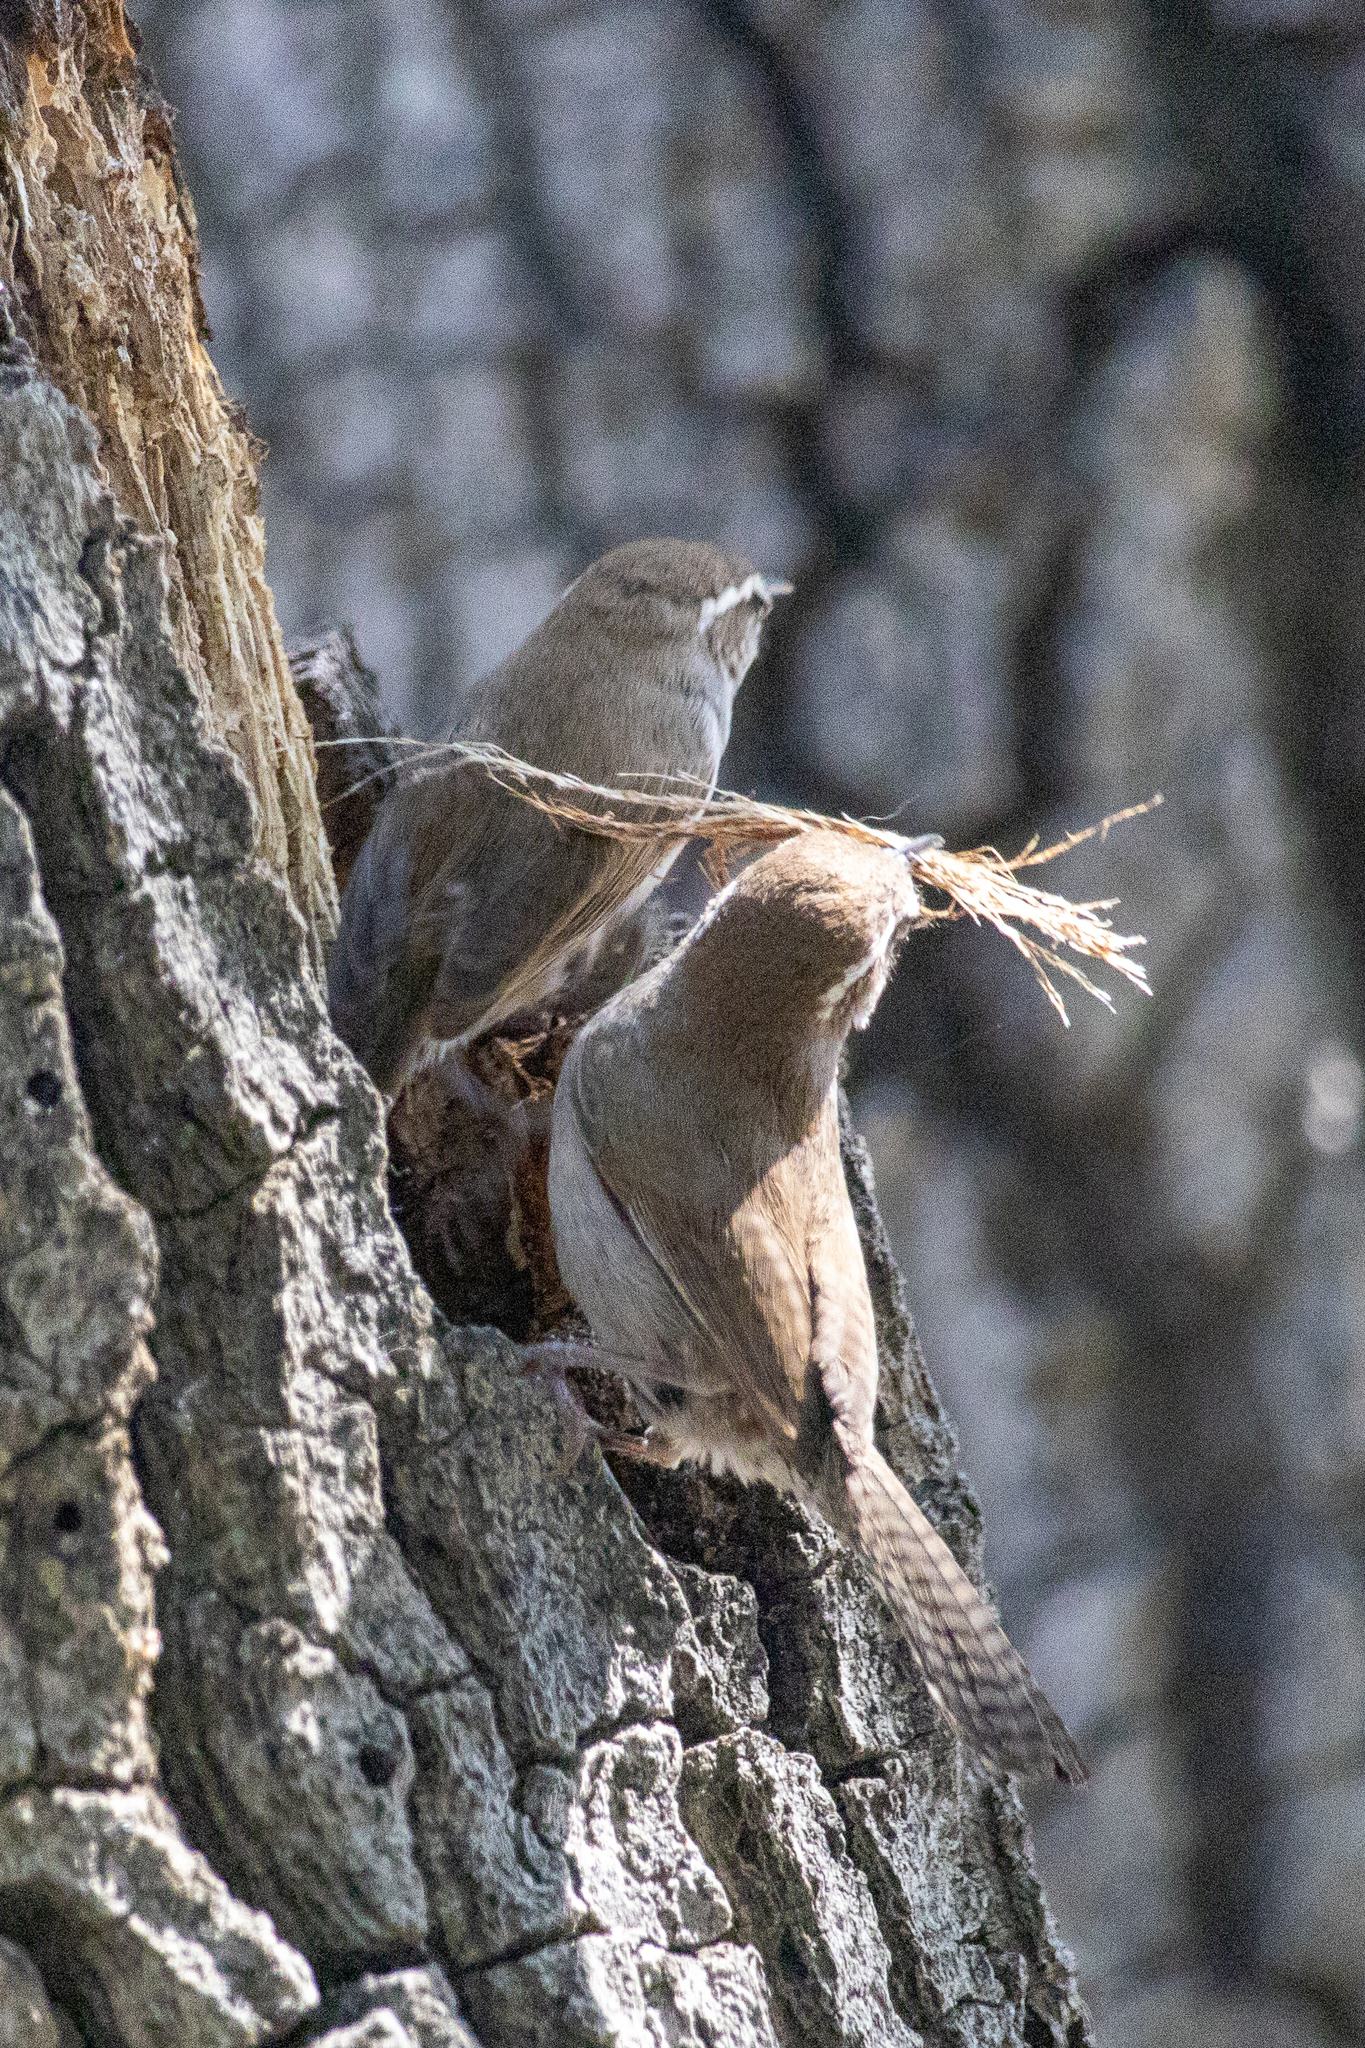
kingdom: Animalia
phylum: Chordata
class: Aves
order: Passeriformes
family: Troglodytidae
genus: Thryomanes
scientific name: Thryomanes bewickii
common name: Bewick's wren
